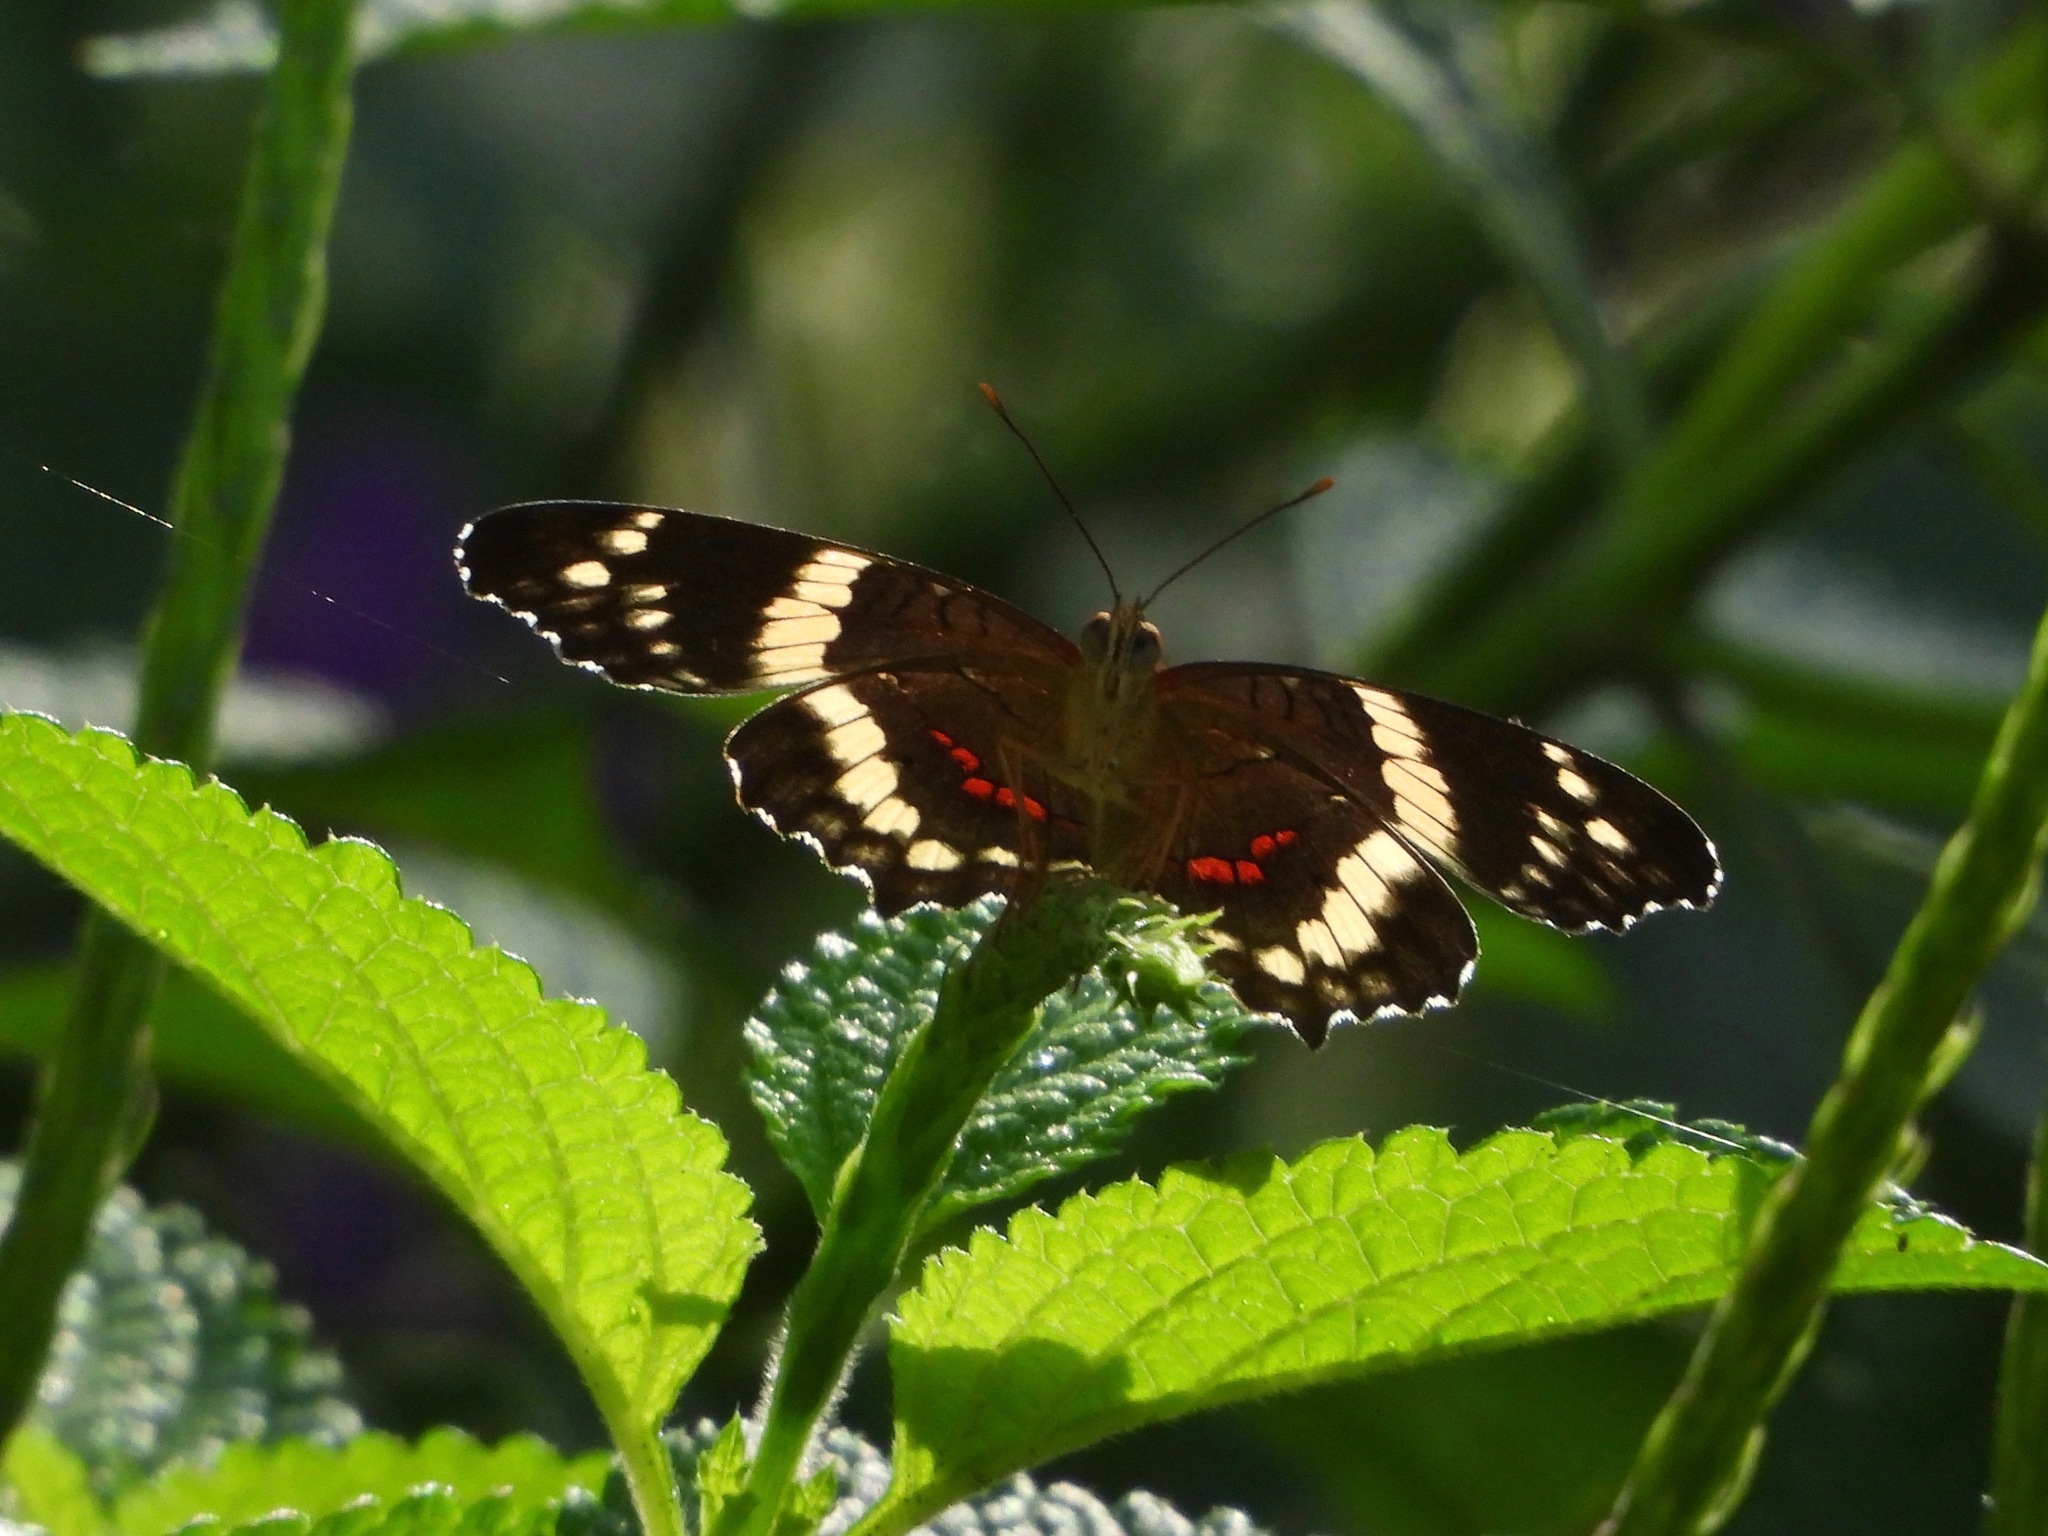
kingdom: Animalia
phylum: Arthropoda
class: Insecta
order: Lepidoptera
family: Nymphalidae
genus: Anartia
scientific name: Anartia fatima
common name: Banded peacock
